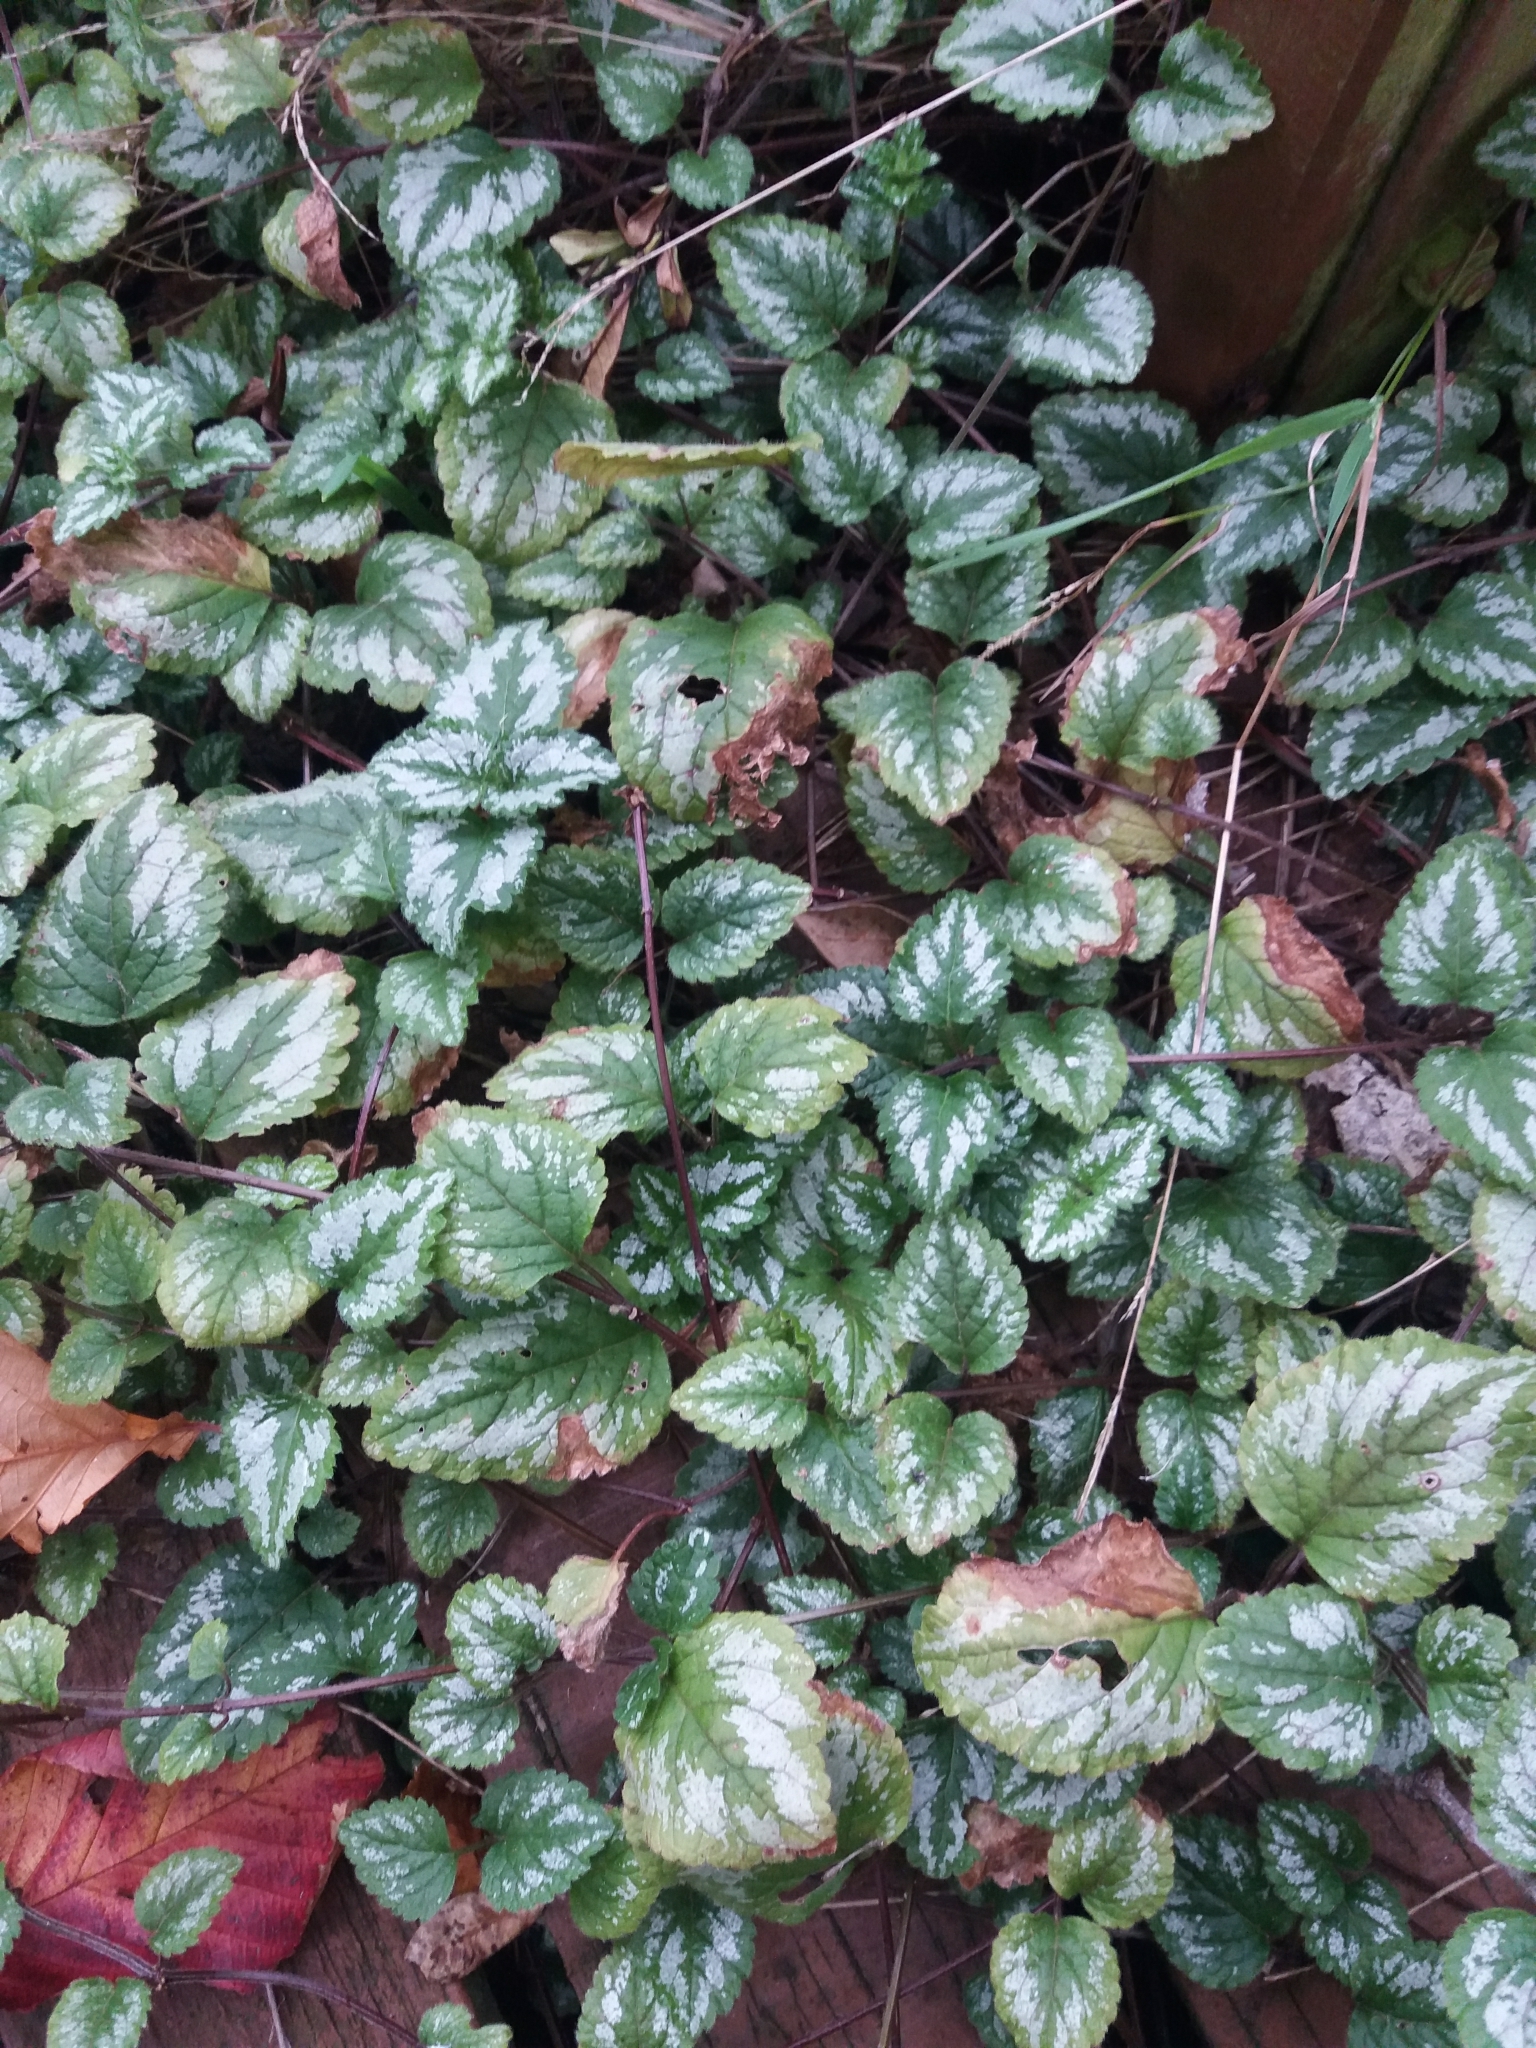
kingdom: Plantae
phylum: Tracheophyta
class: Magnoliopsida
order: Lamiales
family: Lamiaceae
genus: Lamium
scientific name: Lamium galeobdolon
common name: Yellow archangel
